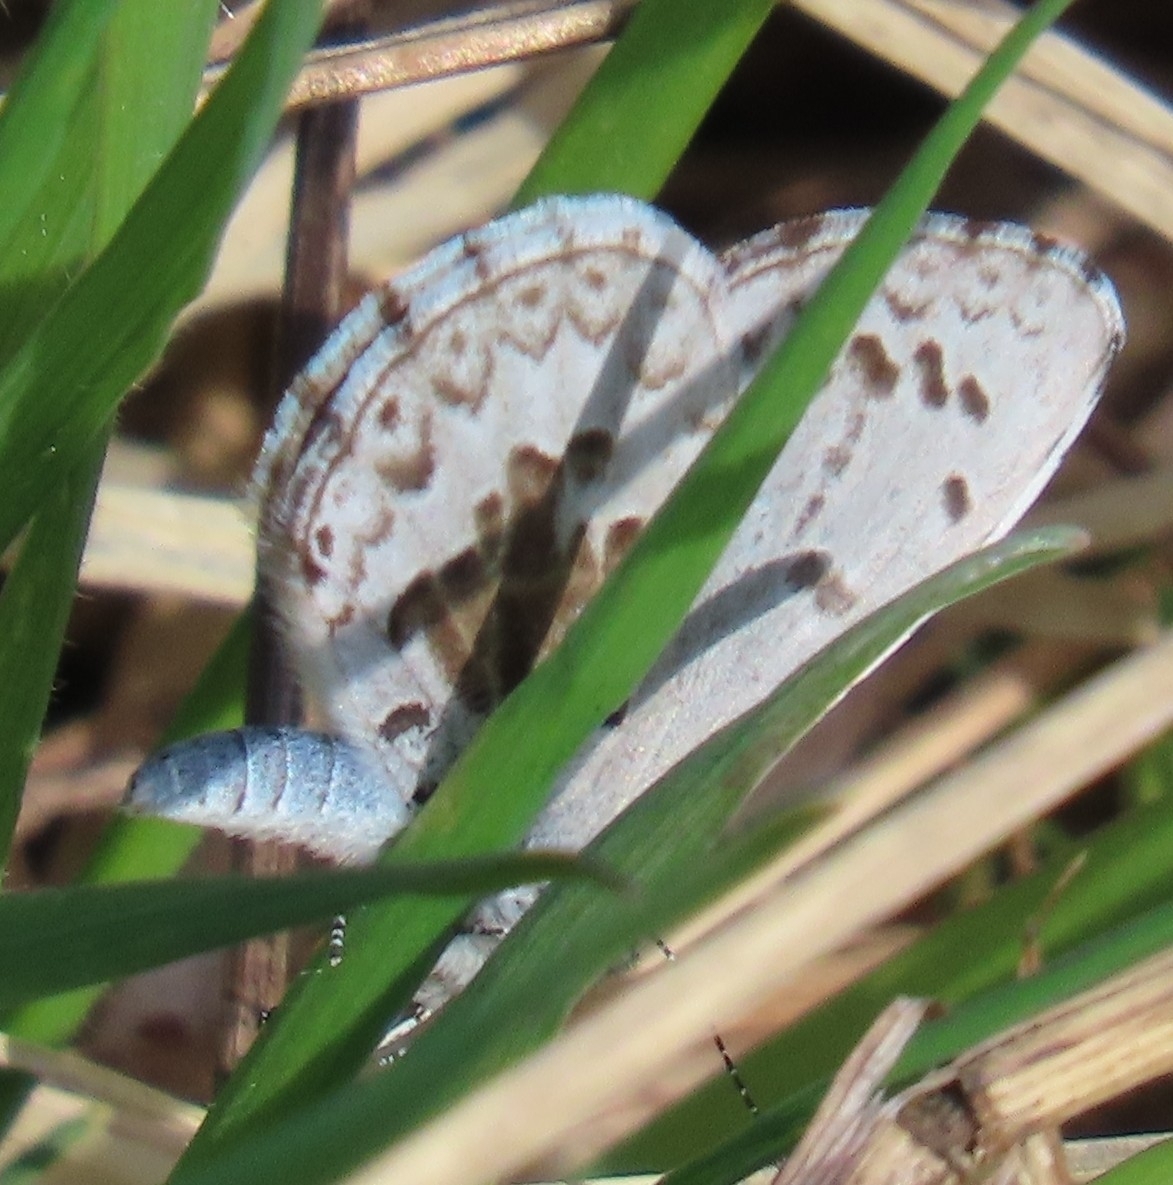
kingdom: Animalia
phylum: Arthropoda
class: Insecta
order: Lepidoptera
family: Lycaenidae
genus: Celastrina
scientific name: Celastrina lucia
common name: Lucia azure
